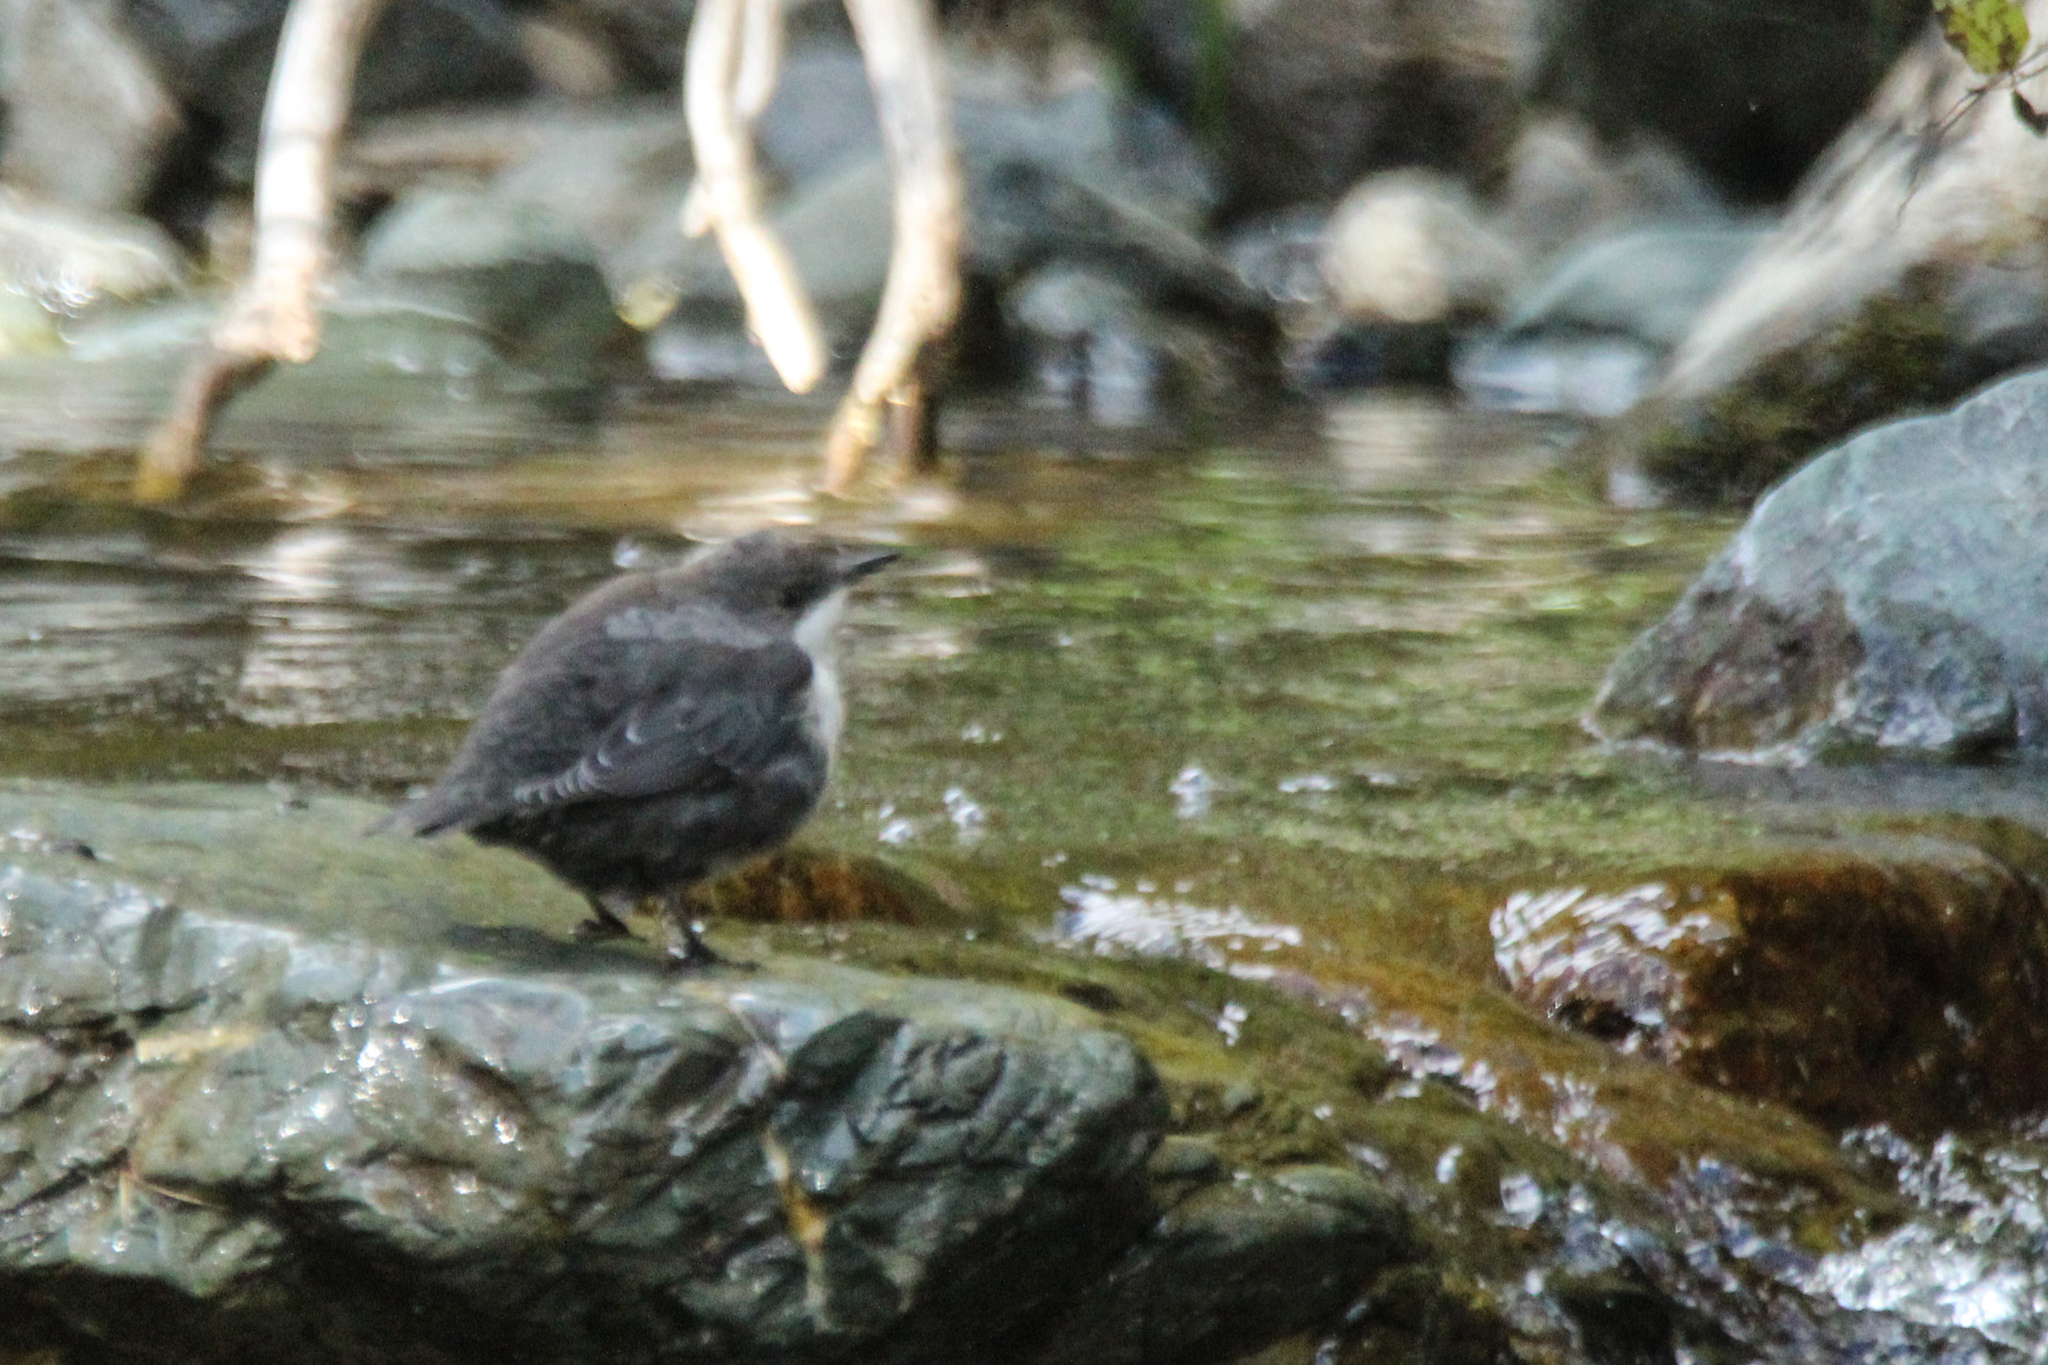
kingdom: Animalia
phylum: Chordata
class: Aves
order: Passeriformes
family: Cinclidae
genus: Cinclus
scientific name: Cinclus cinclus
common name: White-throated dipper
